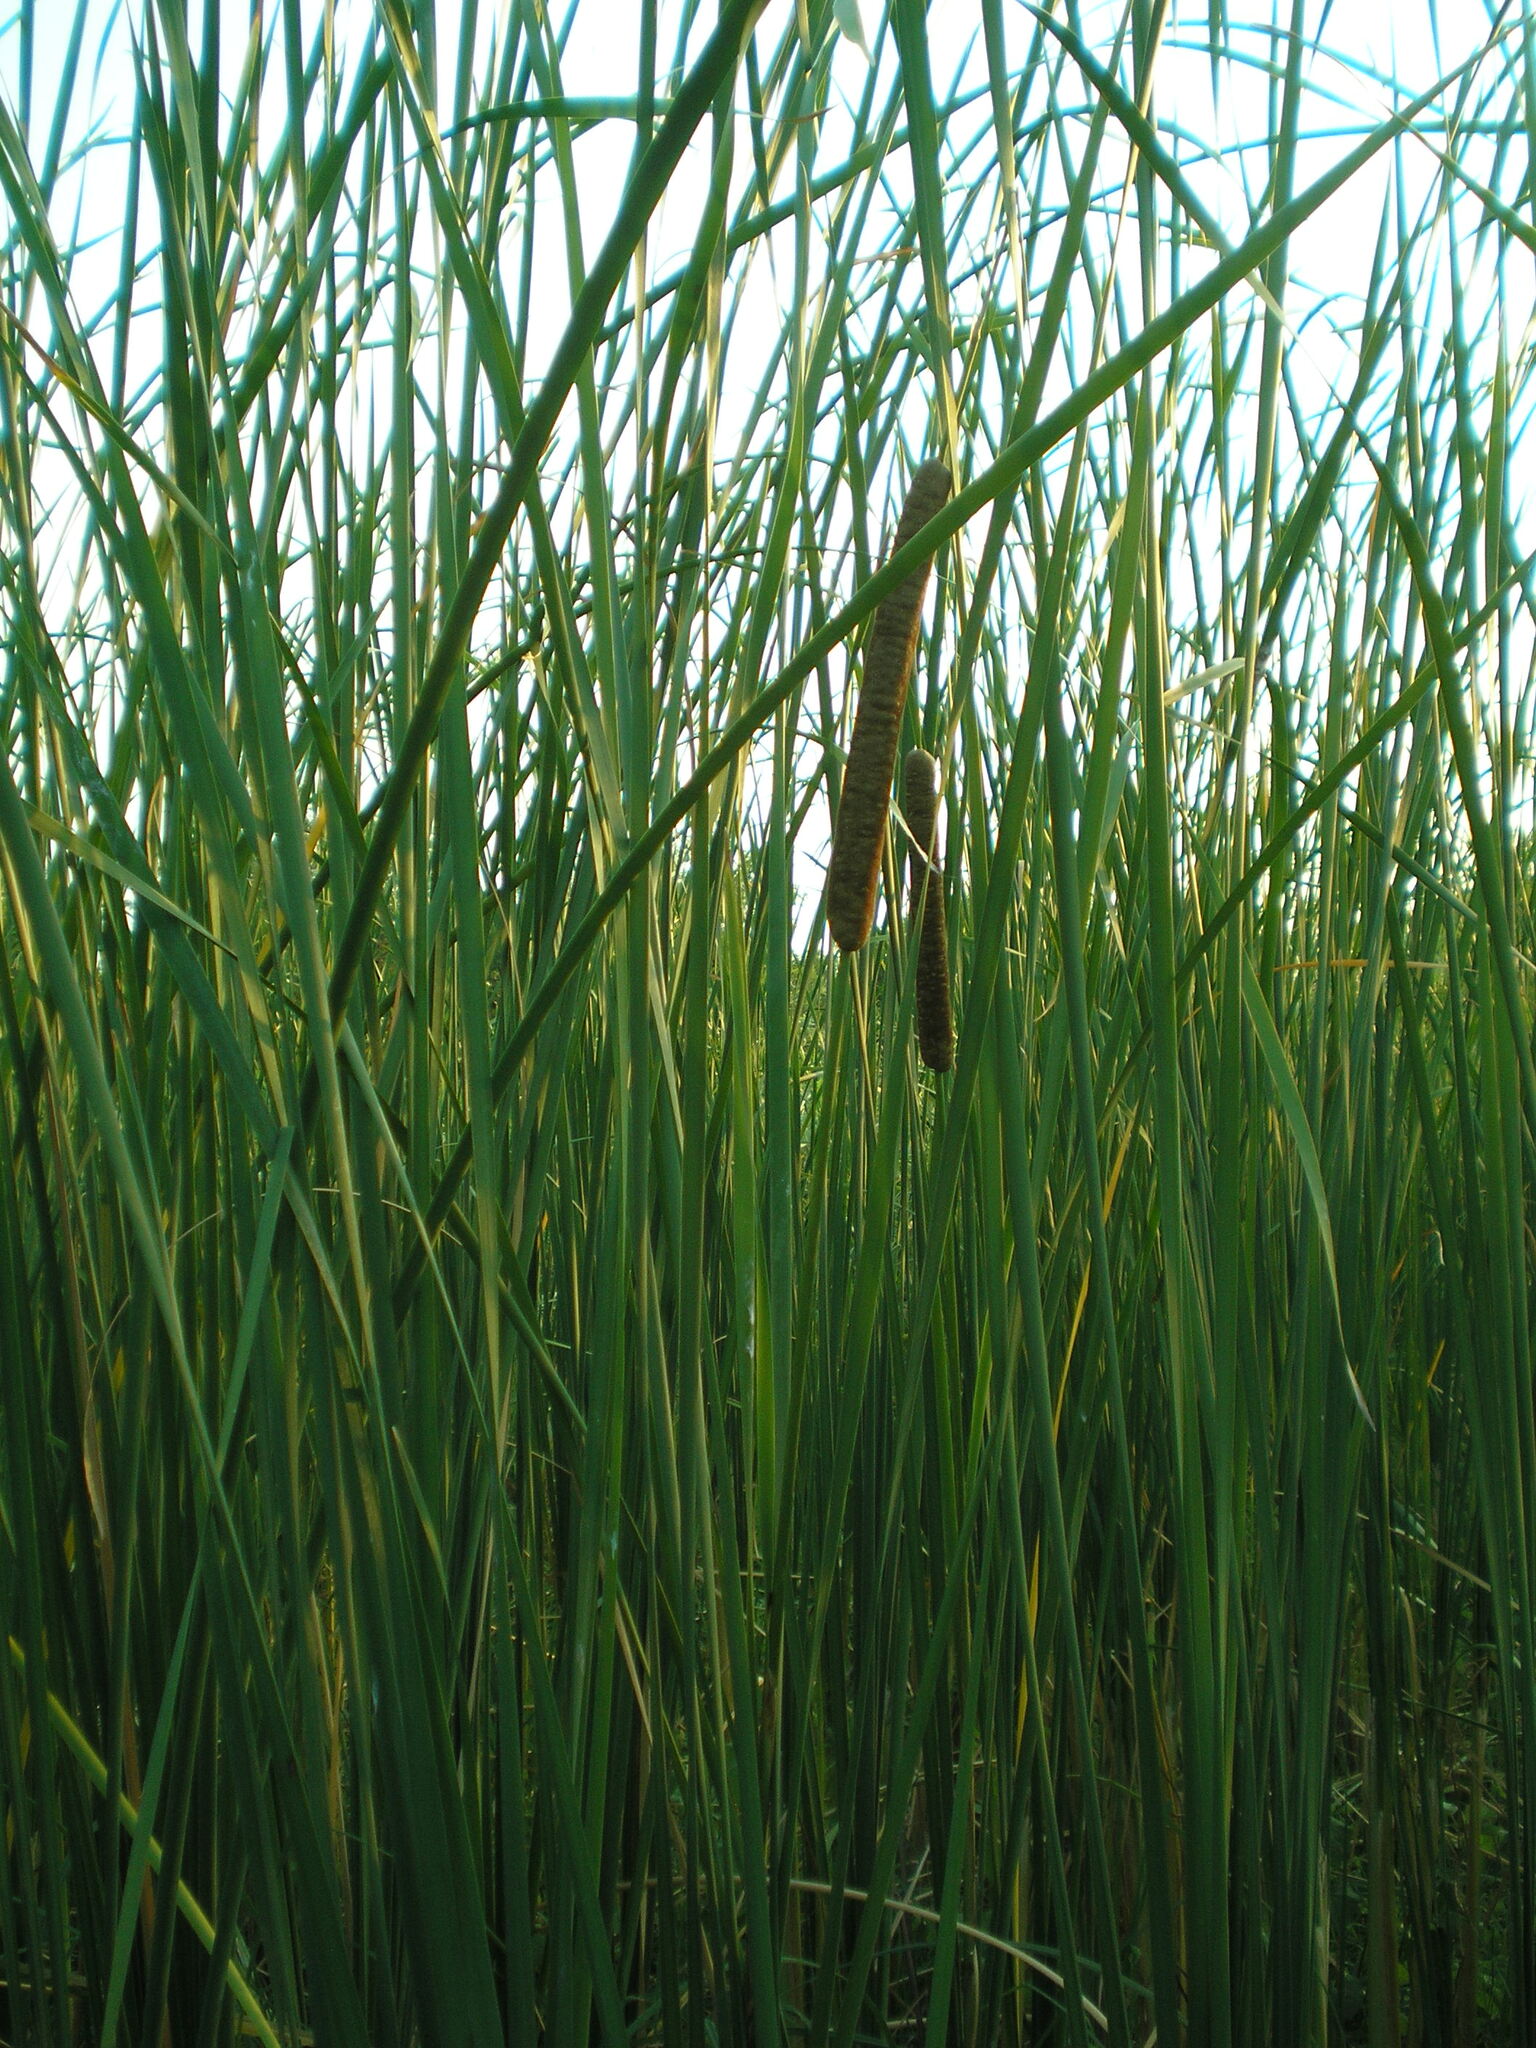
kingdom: Plantae
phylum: Tracheophyta
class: Liliopsida
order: Poales
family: Typhaceae
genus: Typha
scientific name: Typha angustifolia
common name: Lesser bulrush
